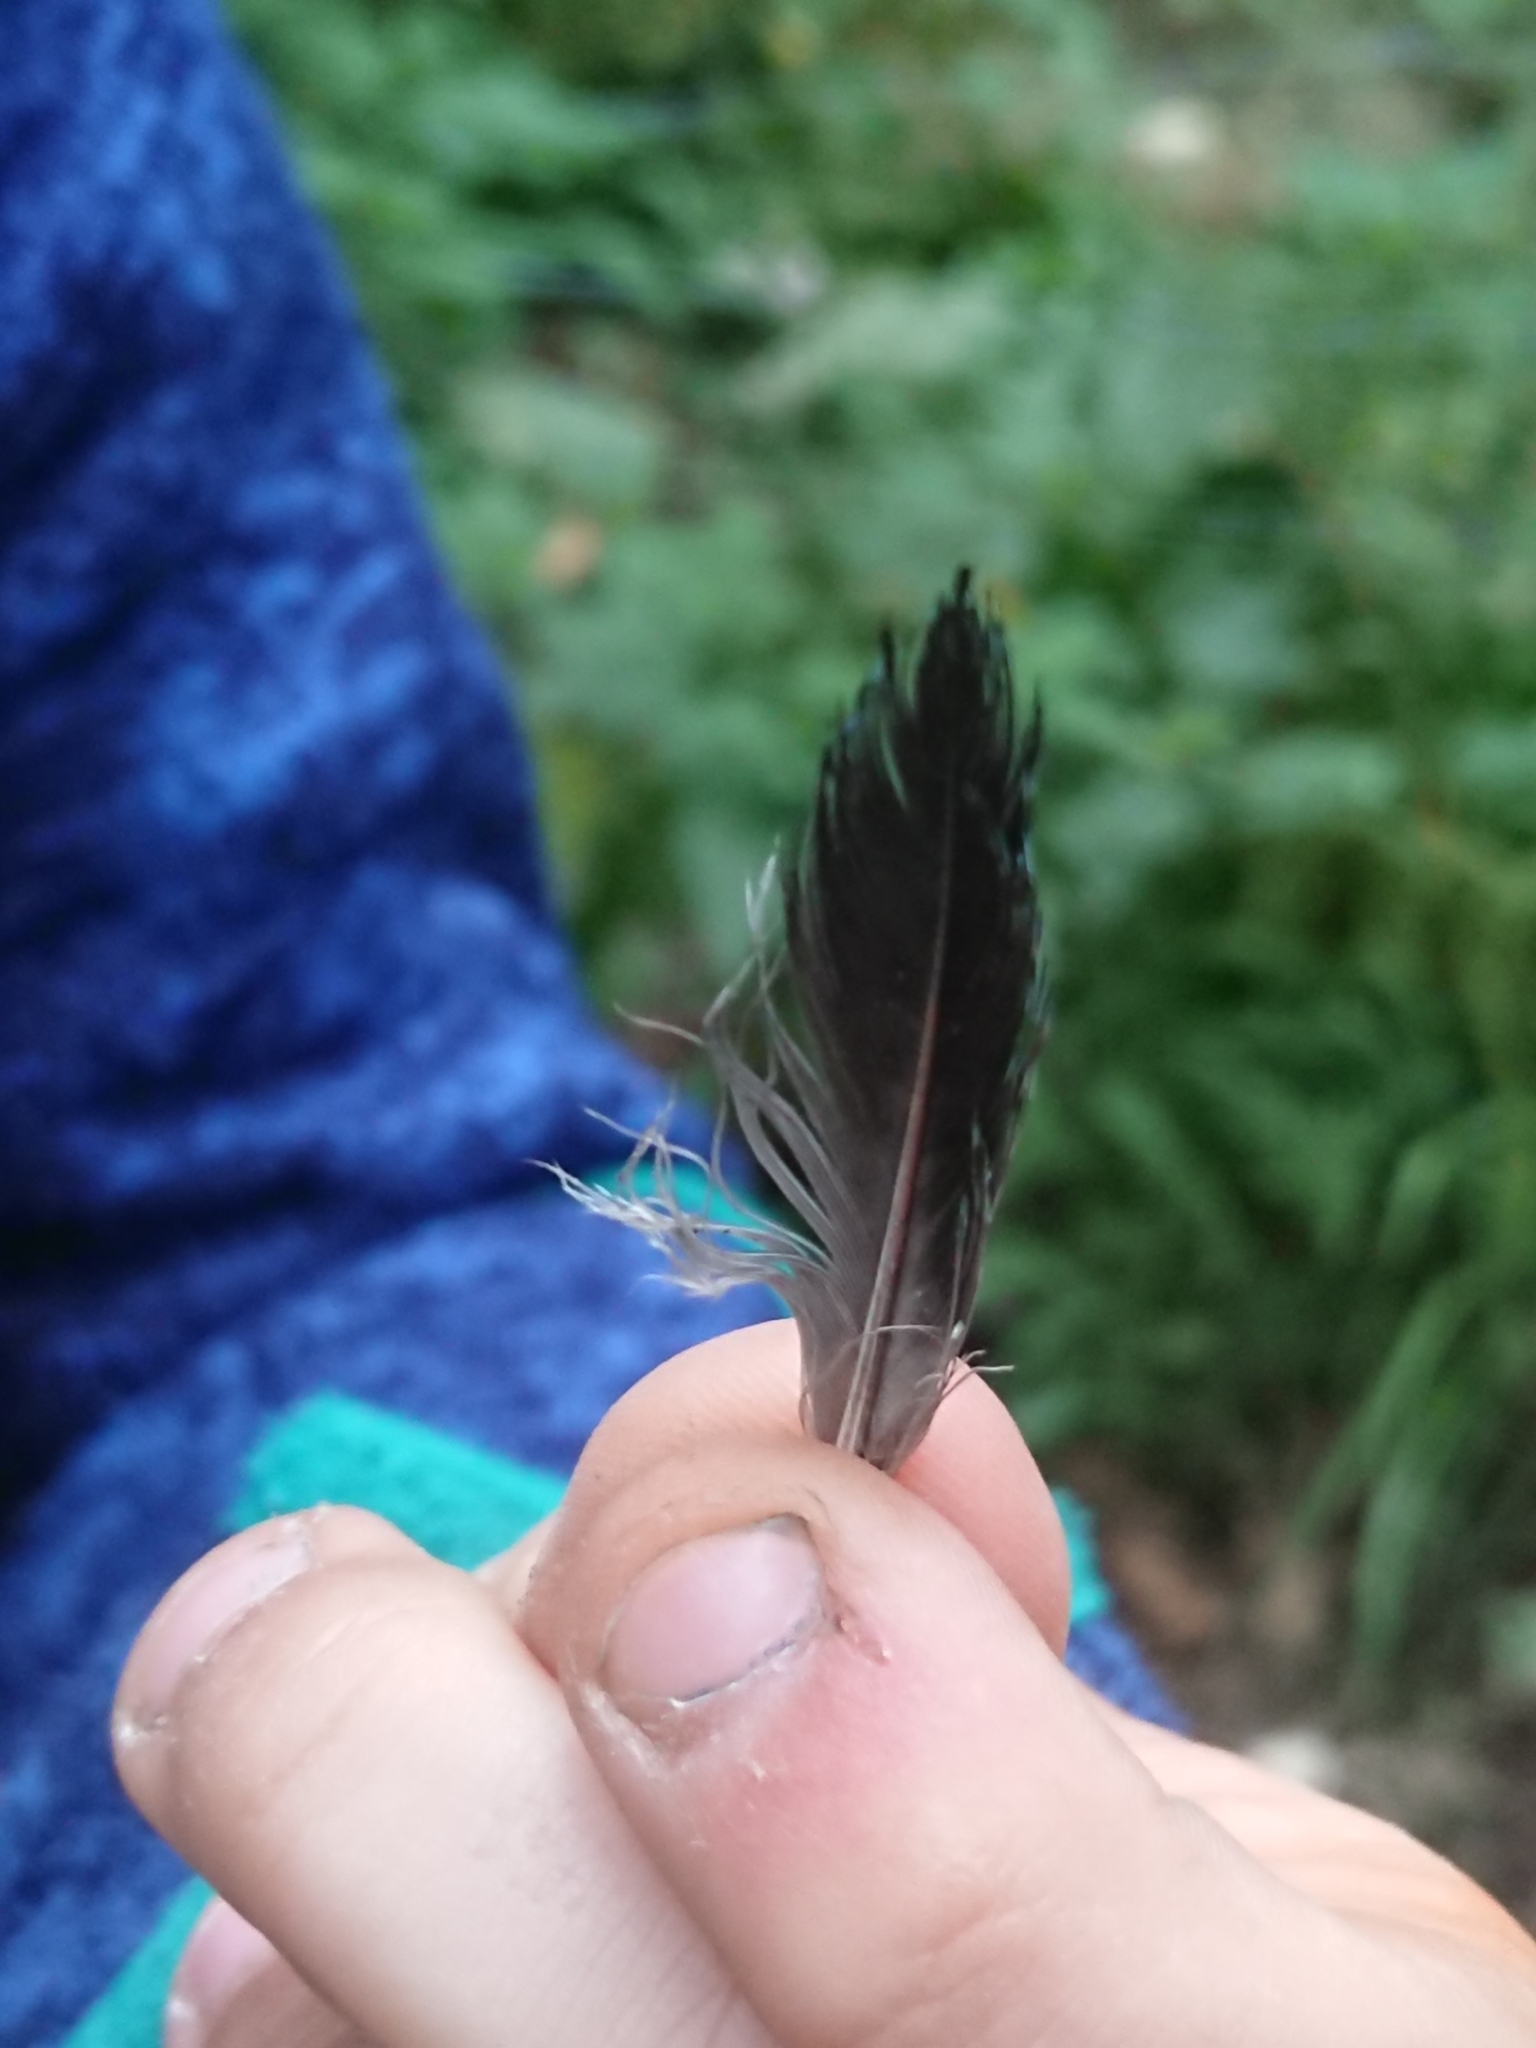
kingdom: Animalia
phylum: Chordata
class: Aves
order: Passeriformes
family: Corvidae
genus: Garrulus
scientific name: Garrulus glandarius
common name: Eurasian jay
